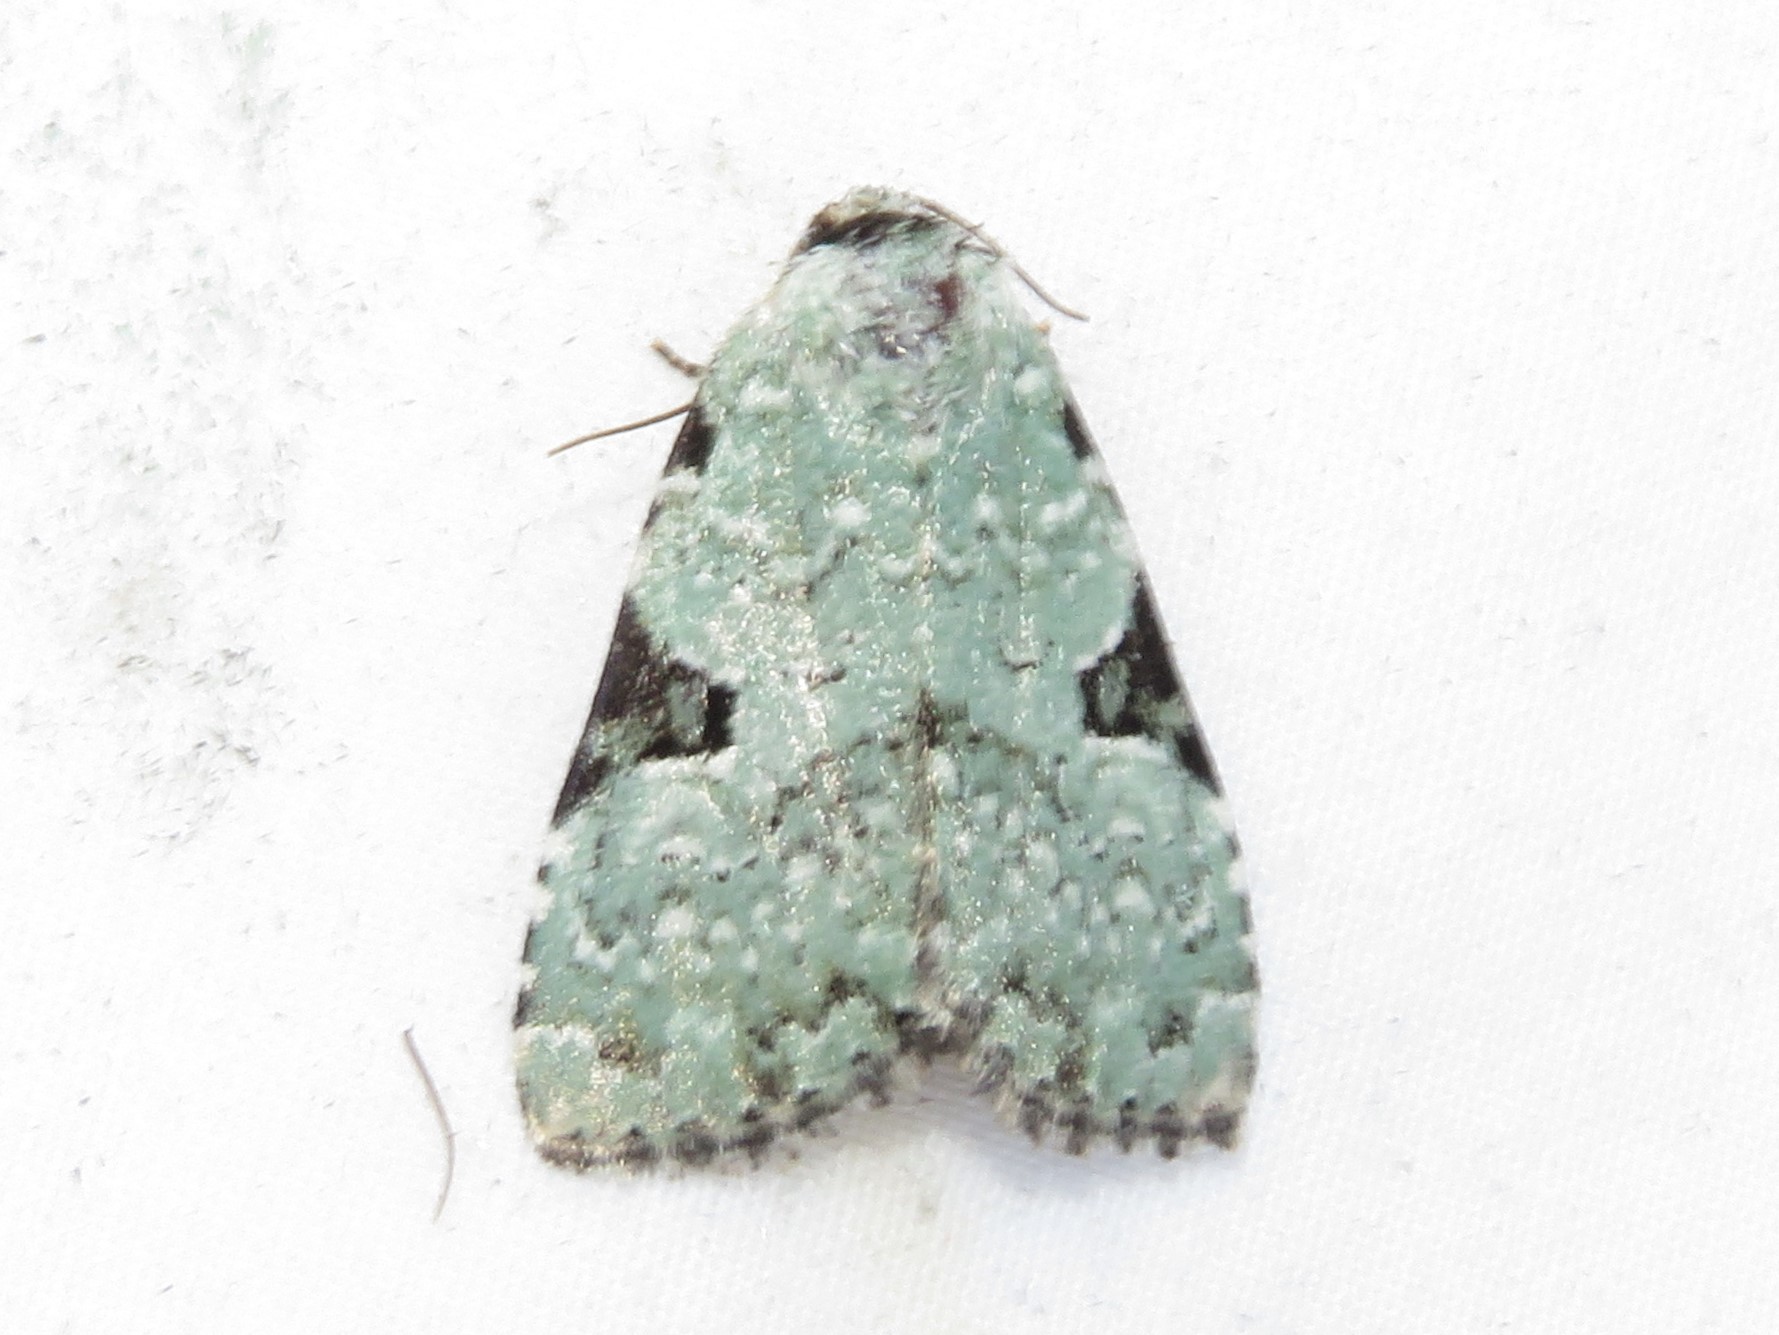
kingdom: Animalia
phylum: Arthropoda
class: Insecta
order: Lepidoptera
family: Noctuidae
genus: Leuconycta
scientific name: Leuconycta diphteroides
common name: Green leuconycta moth
